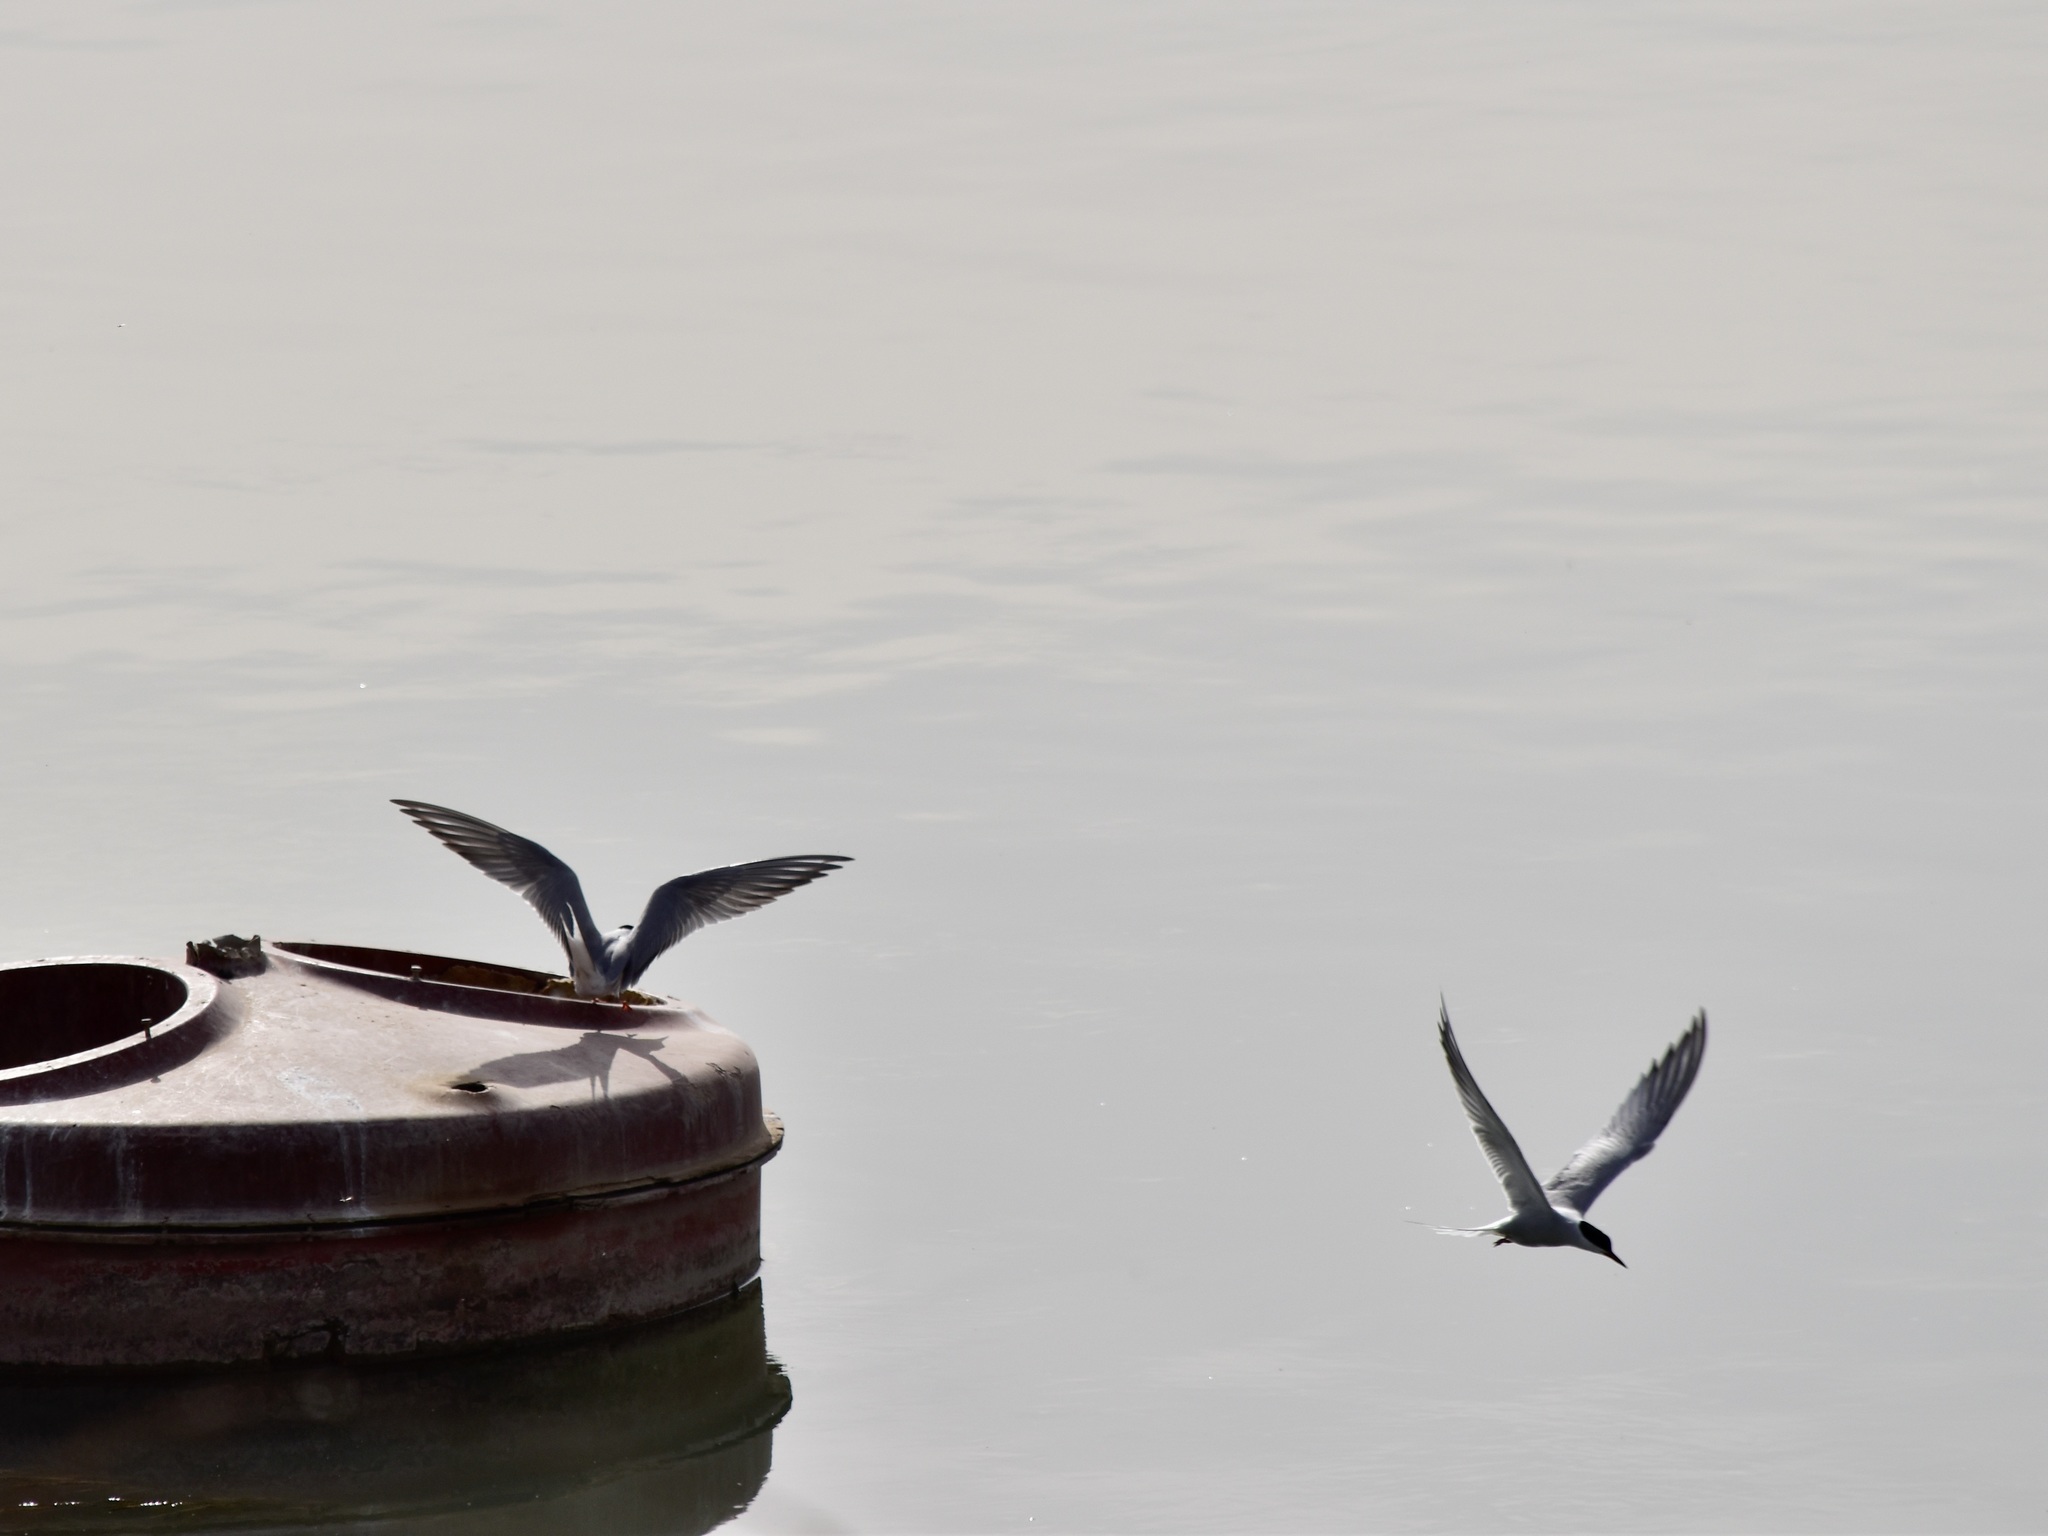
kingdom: Animalia
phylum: Chordata
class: Aves
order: Charadriiformes
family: Laridae
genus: Sterna
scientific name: Sterna hirundo
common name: Common tern
